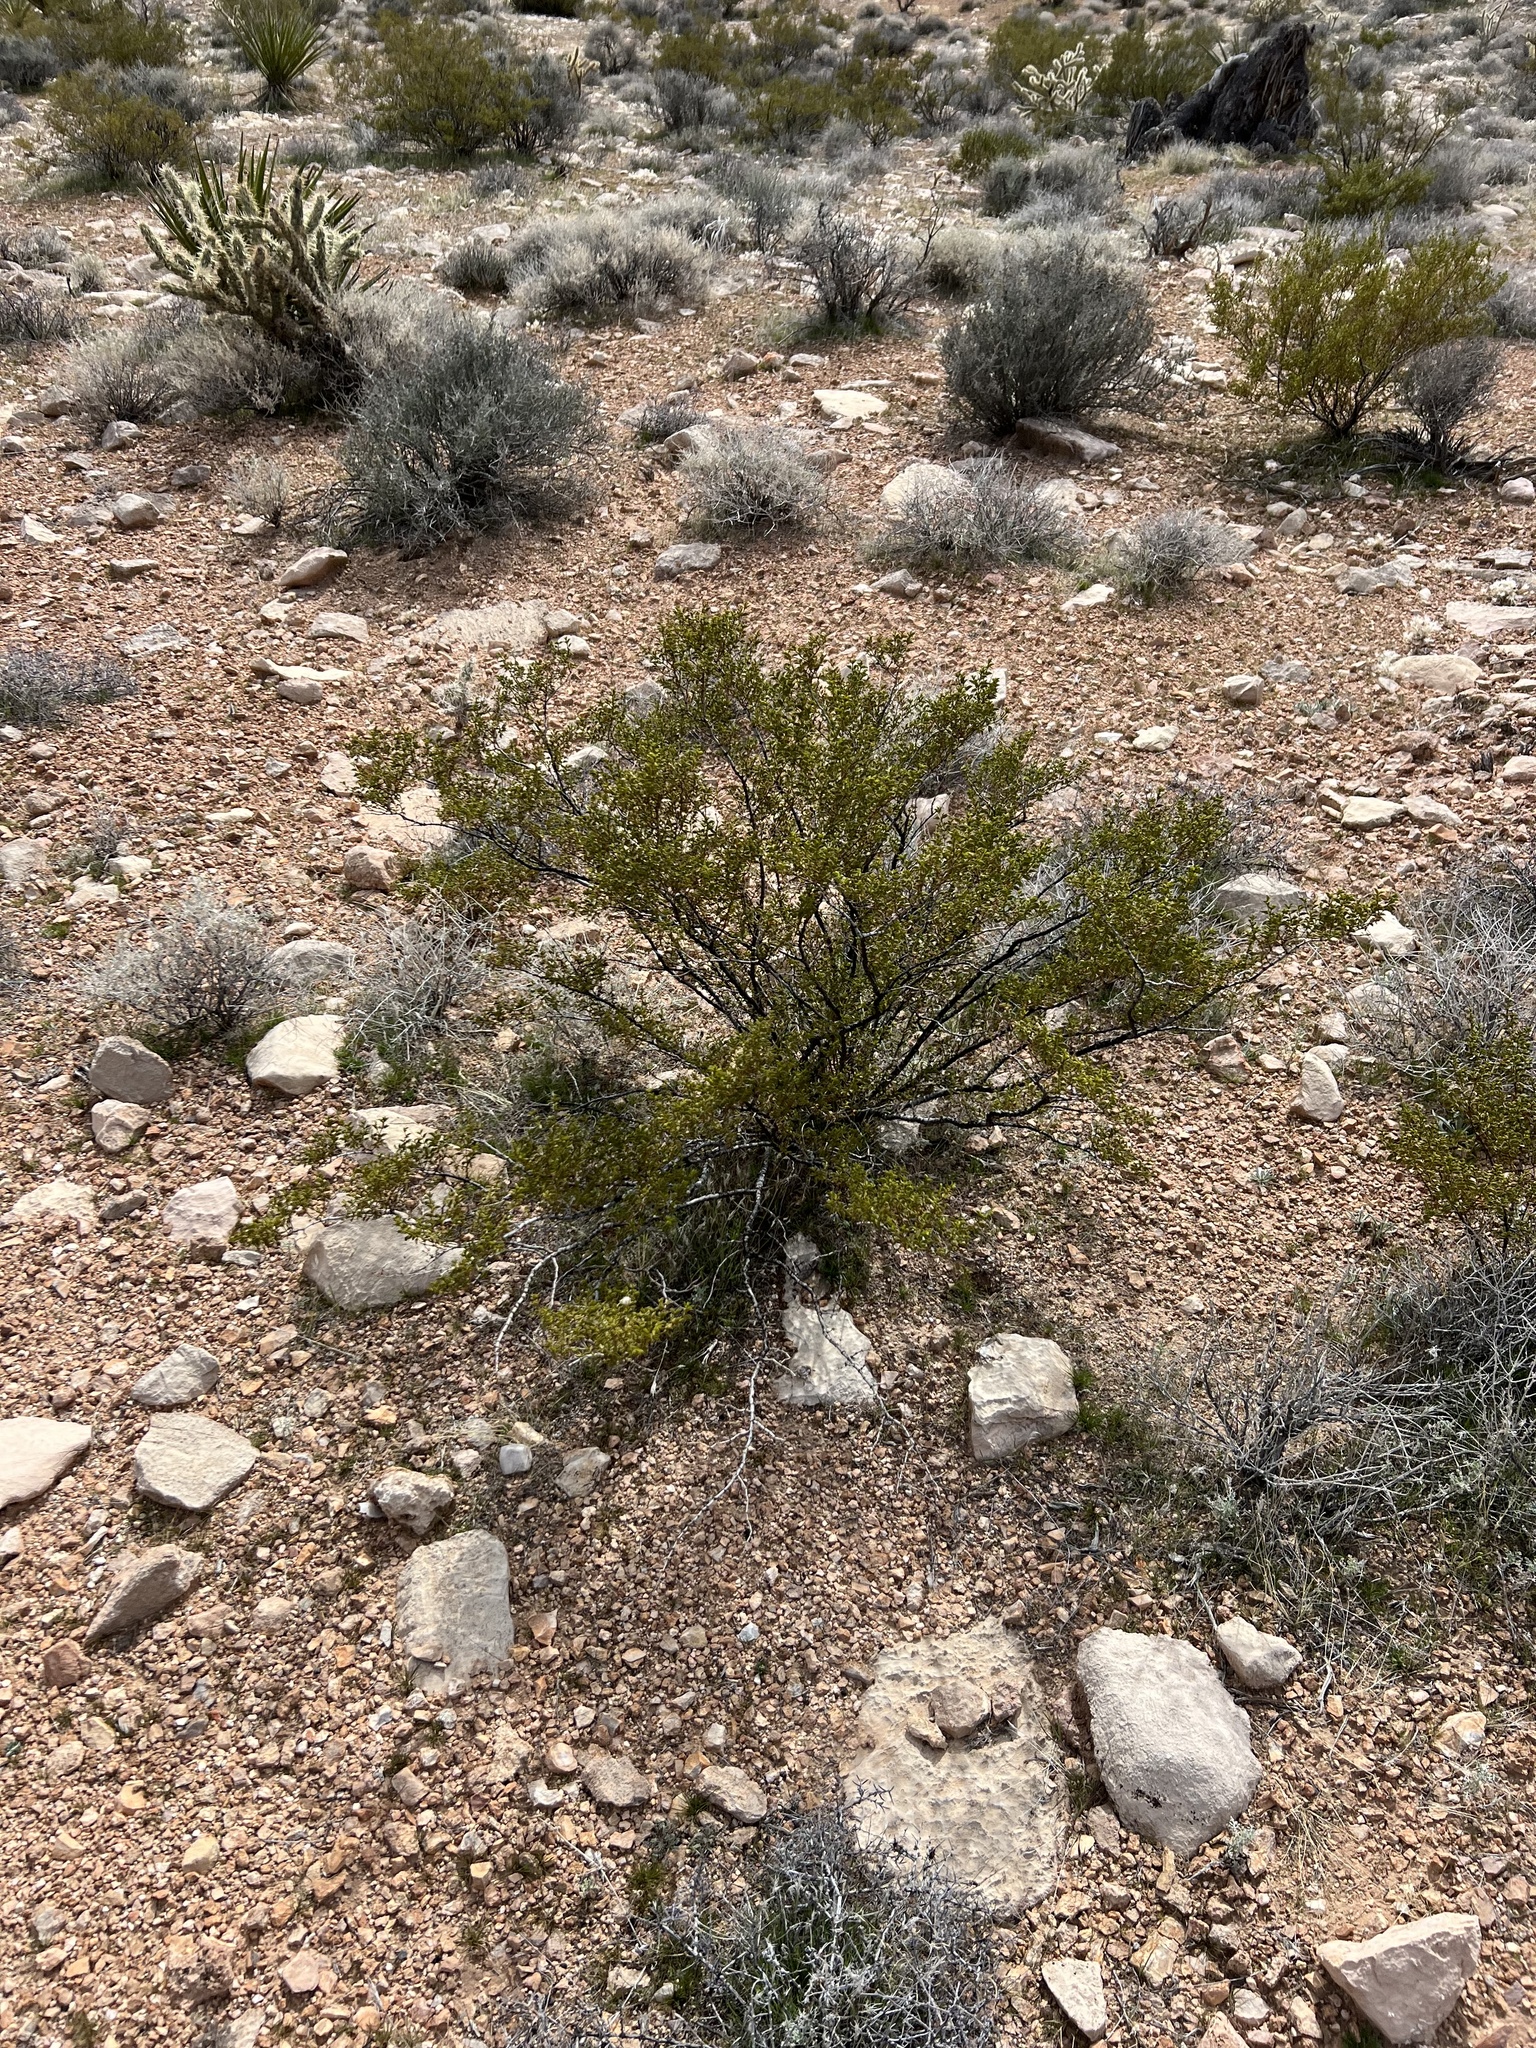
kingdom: Plantae
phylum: Tracheophyta
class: Magnoliopsida
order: Zygophyllales
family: Zygophyllaceae
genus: Larrea
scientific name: Larrea tridentata
